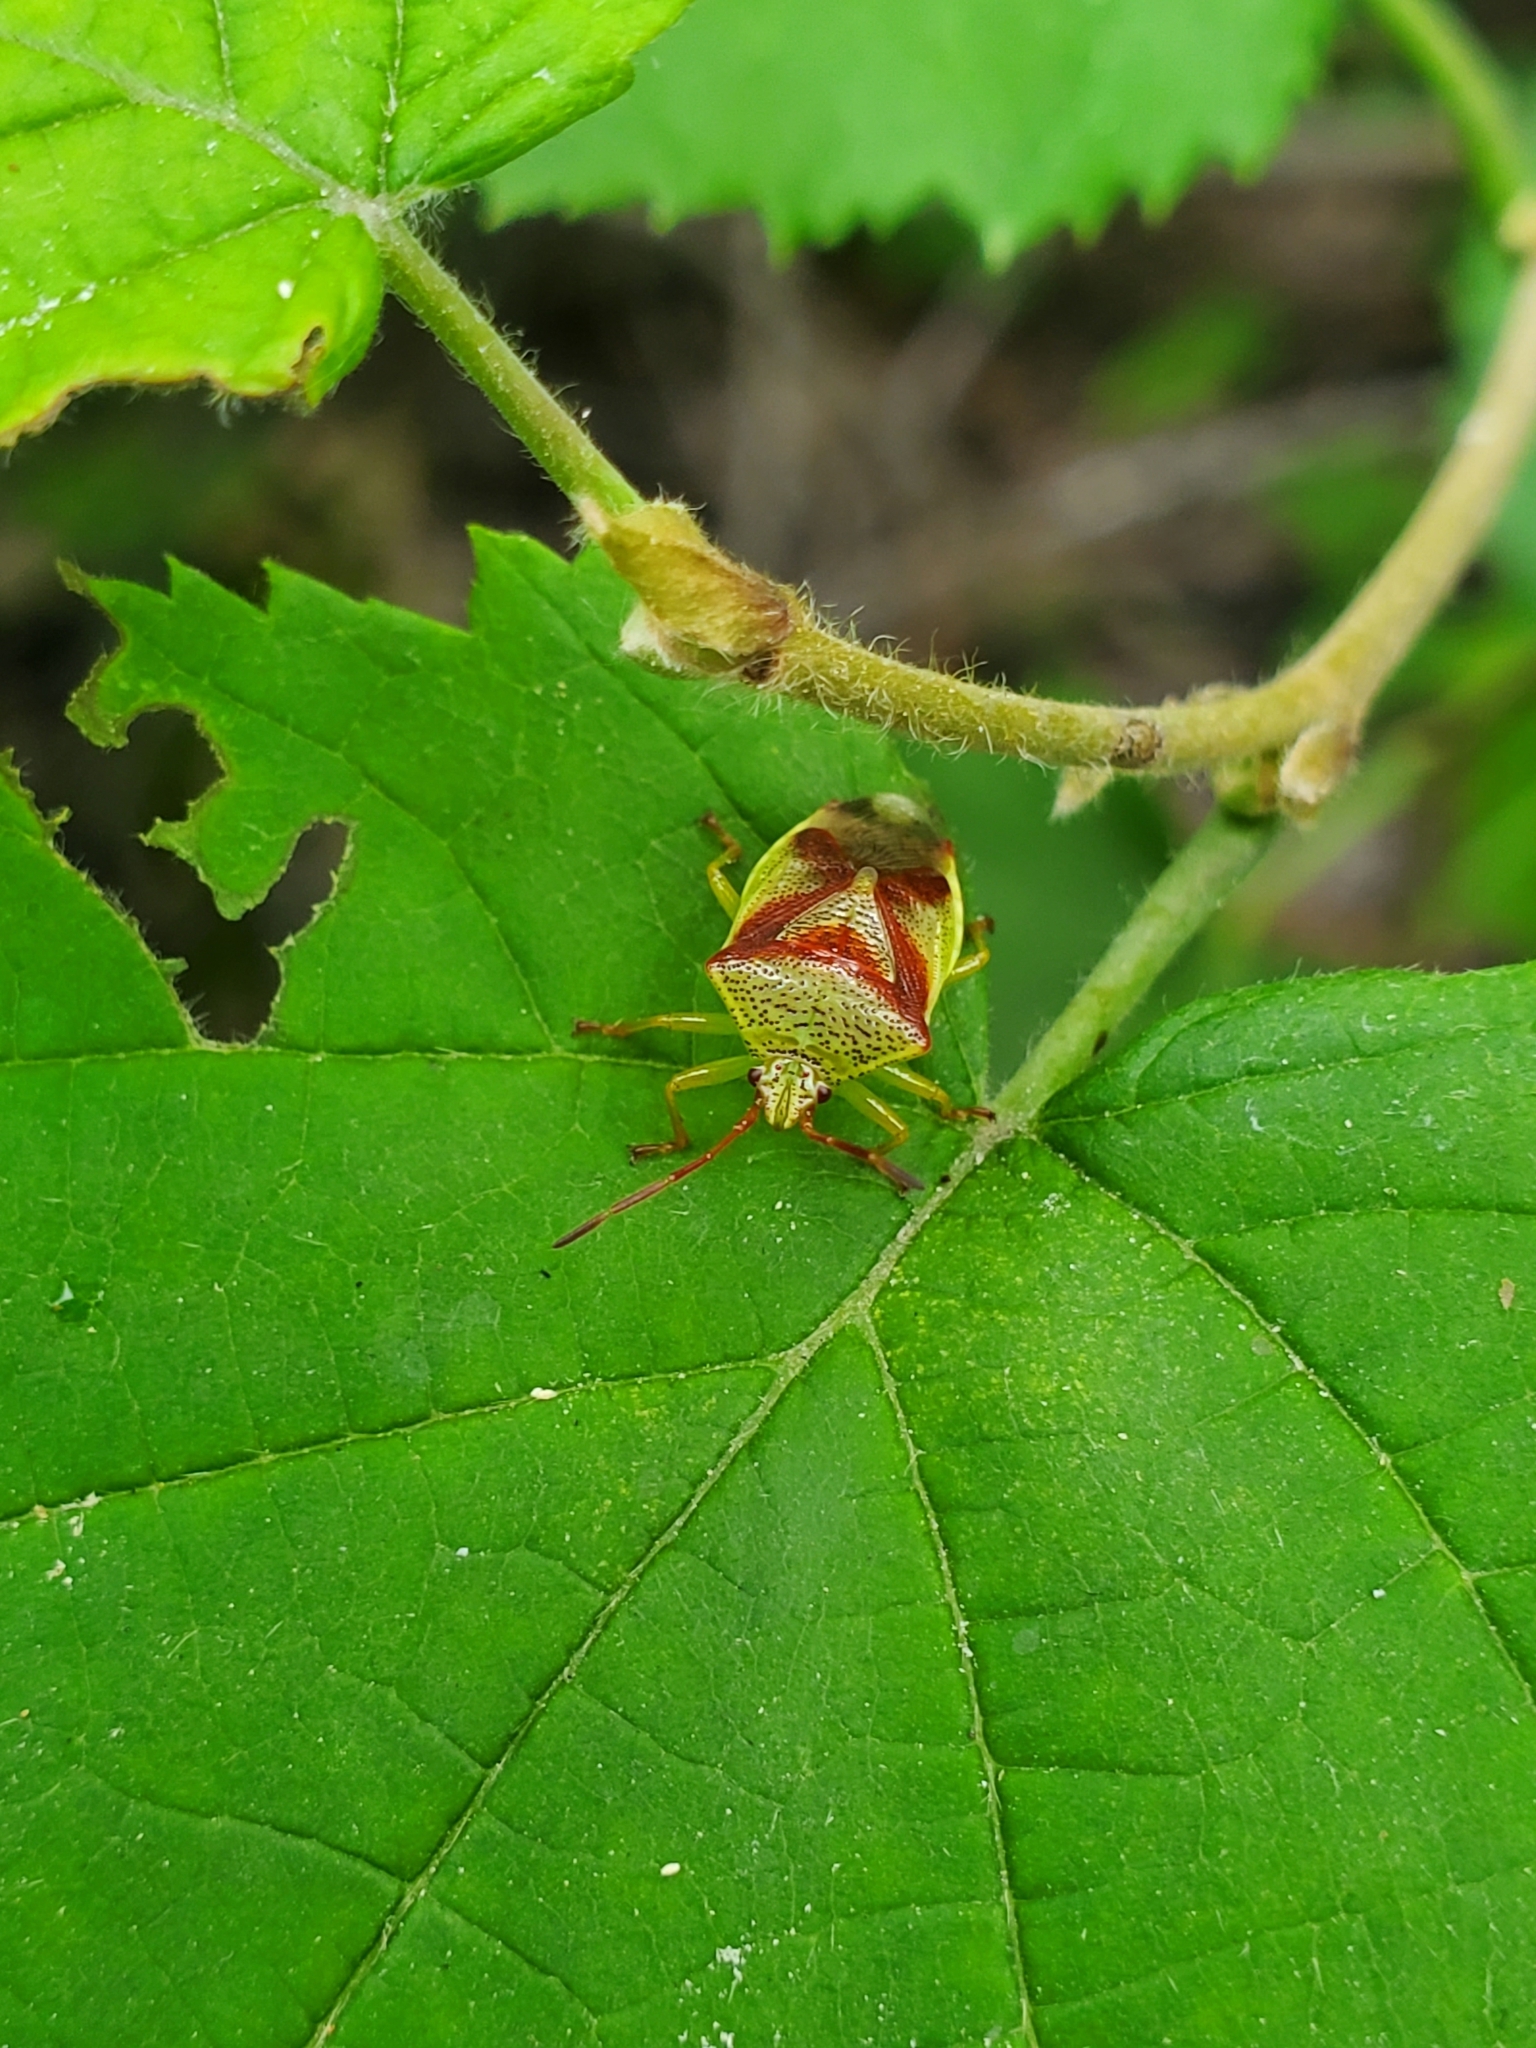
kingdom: Animalia
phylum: Arthropoda
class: Insecta
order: Hemiptera
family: Acanthosomatidae
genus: Elasmostethus
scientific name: Elasmostethus cruciatus
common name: Red-cross shield bug
